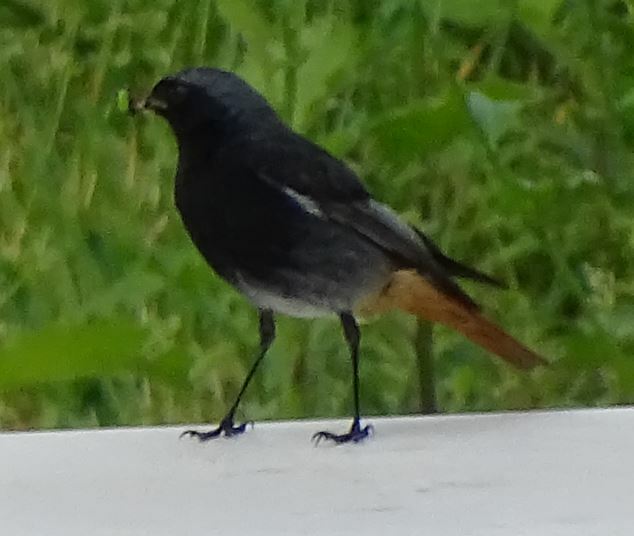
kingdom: Animalia
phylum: Chordata
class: Aves
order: Passeriformes
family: Muscicapidae
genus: Phoenicurus
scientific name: Phoenicurus ochruros
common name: Black redstart
